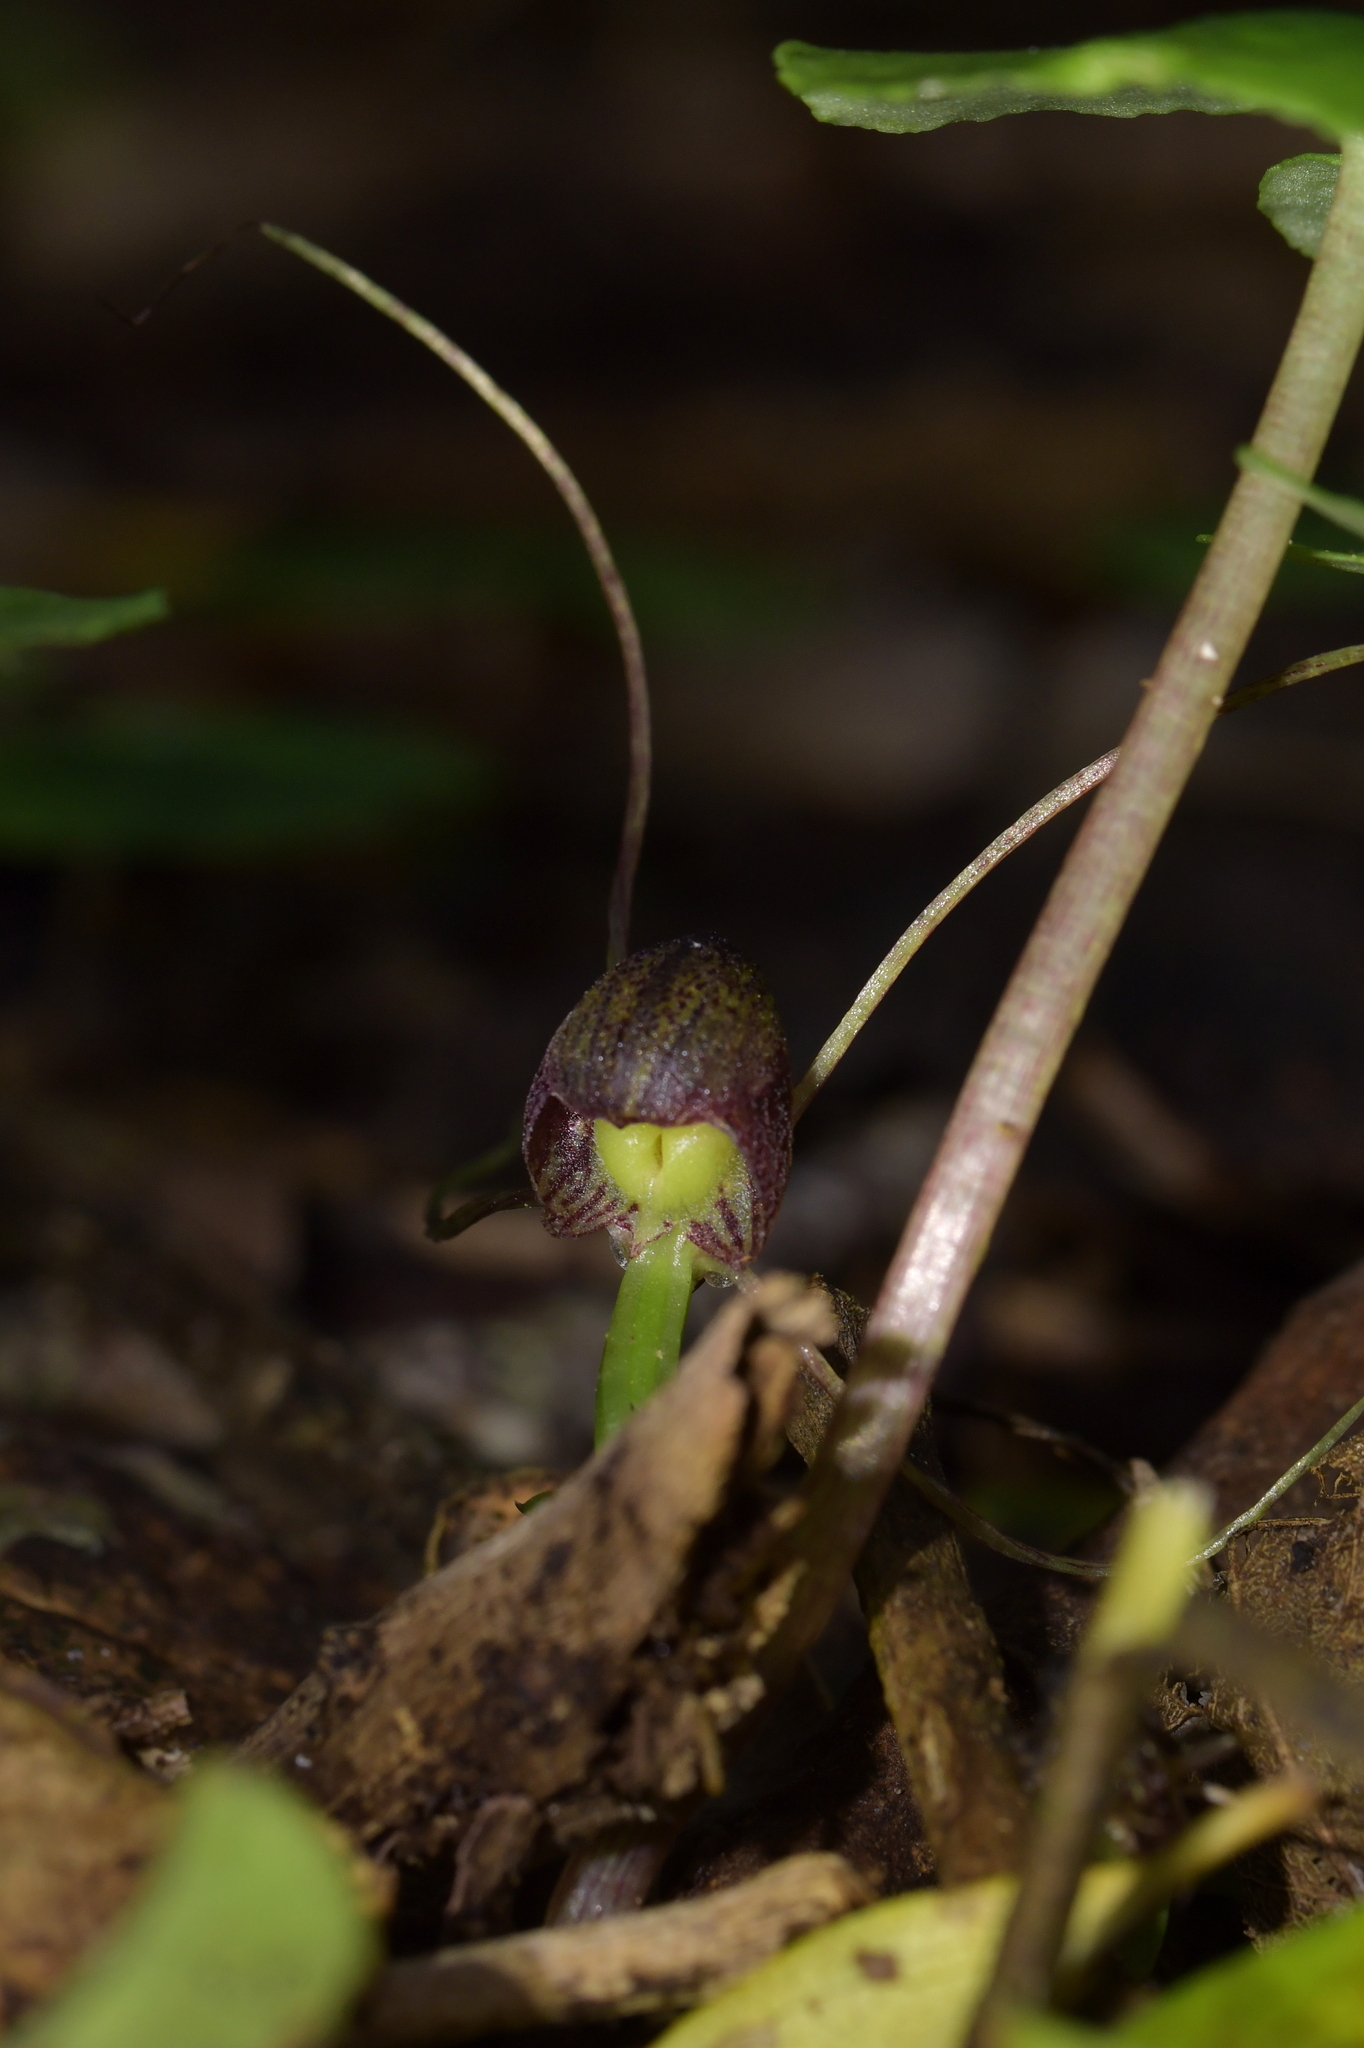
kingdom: Plantae
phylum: Tracheophyta
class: Liliopsida
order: Asparagales
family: Orchidaceae
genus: Corybas
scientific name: Corybas sulcatus
